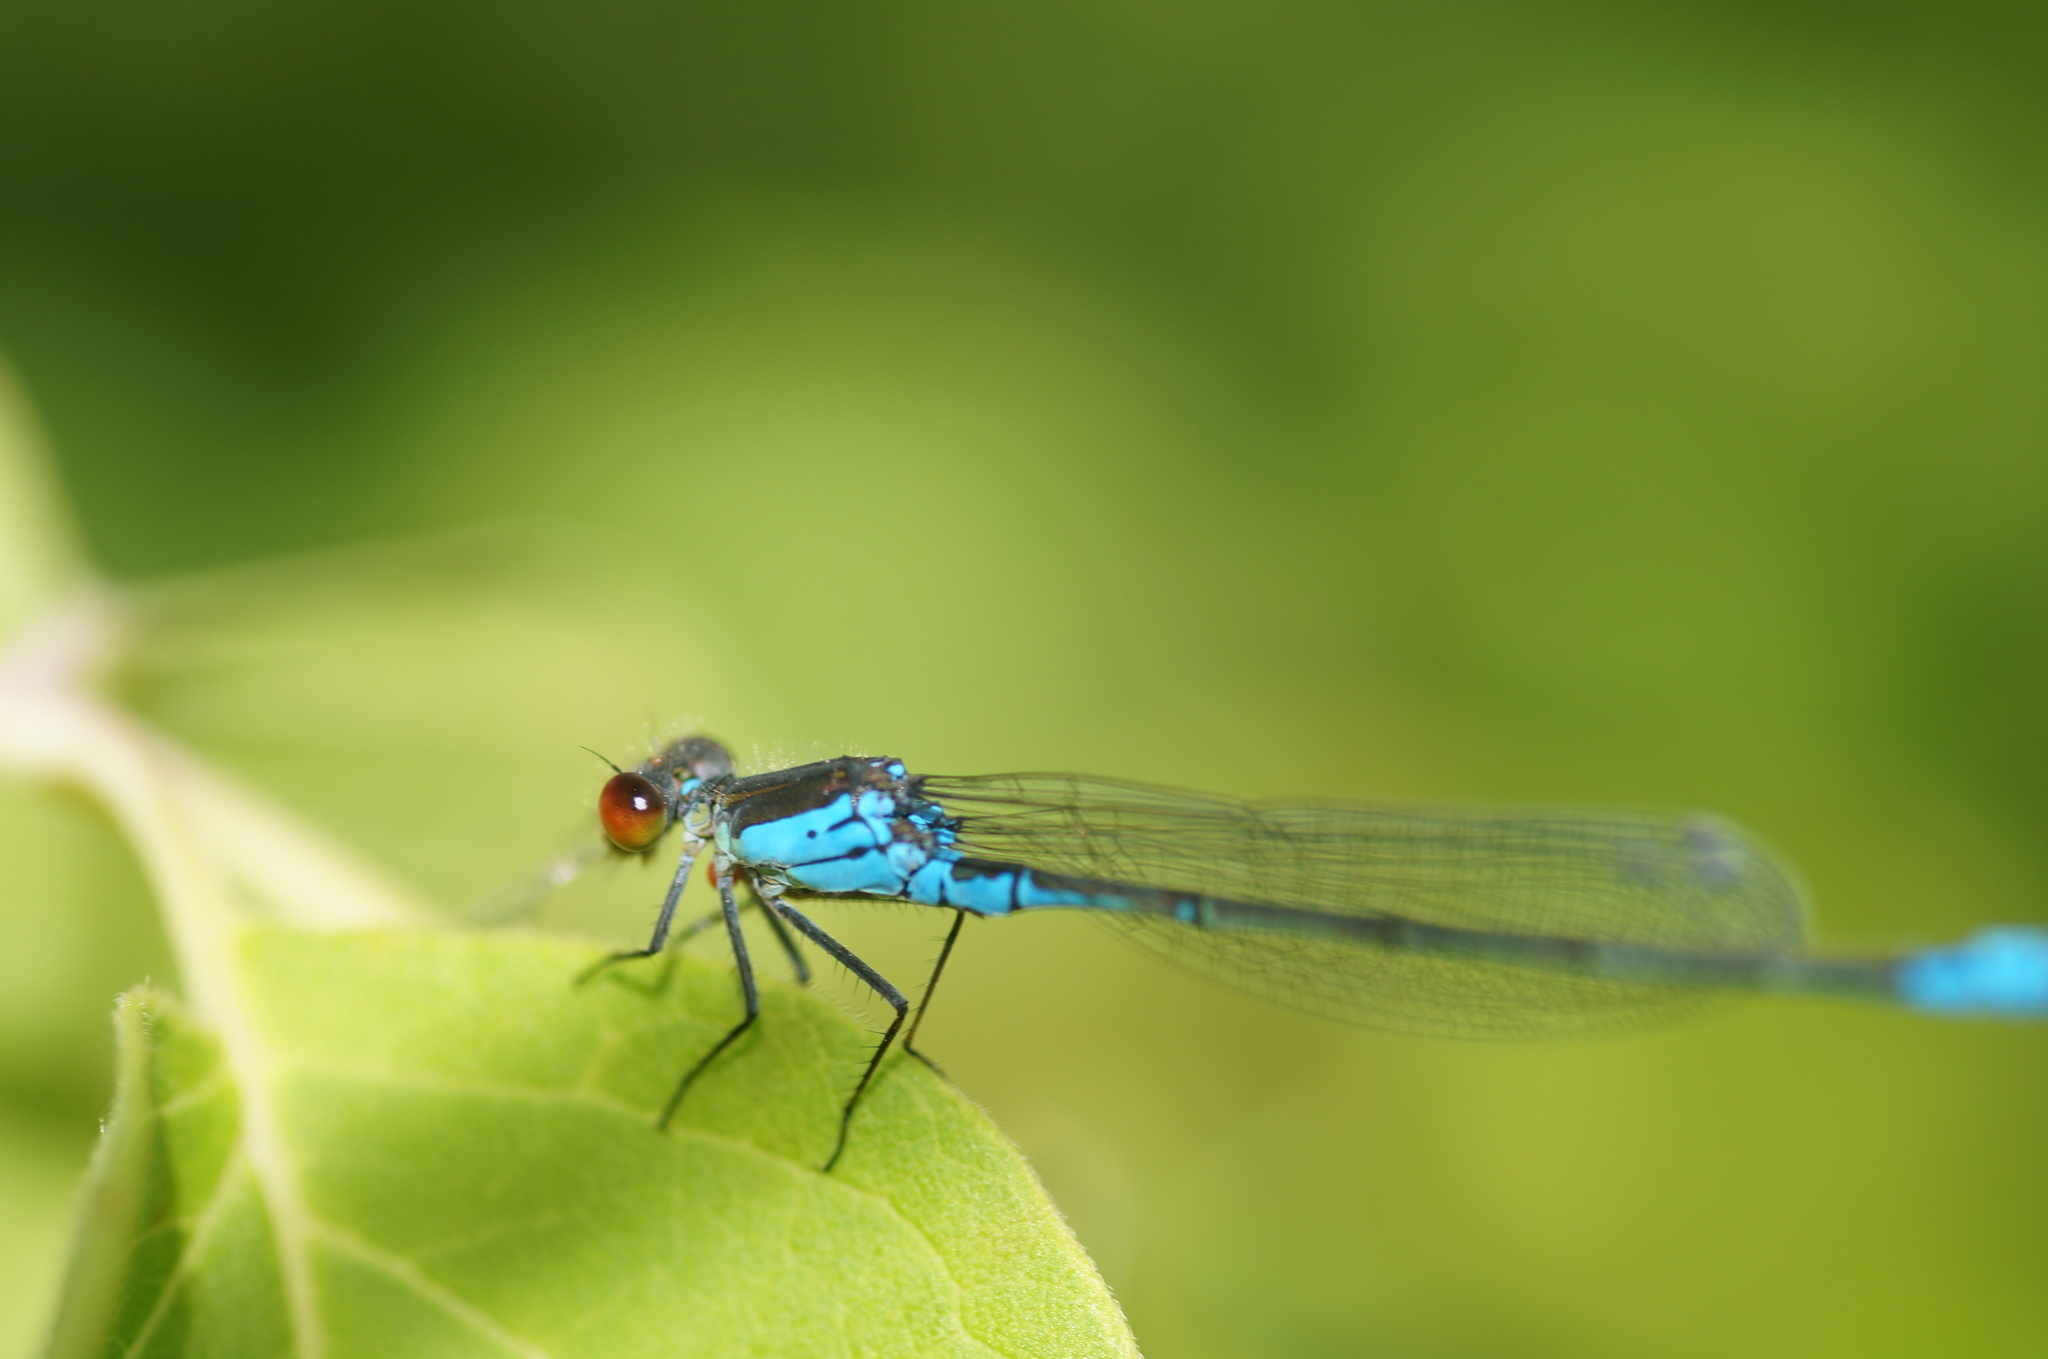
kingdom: Animalia
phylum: Arthropoda
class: Insecta
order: Odonata
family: Coenagrionidae
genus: Erythromma
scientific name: Erythromma viridulum
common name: Small red-eyed damselfly
